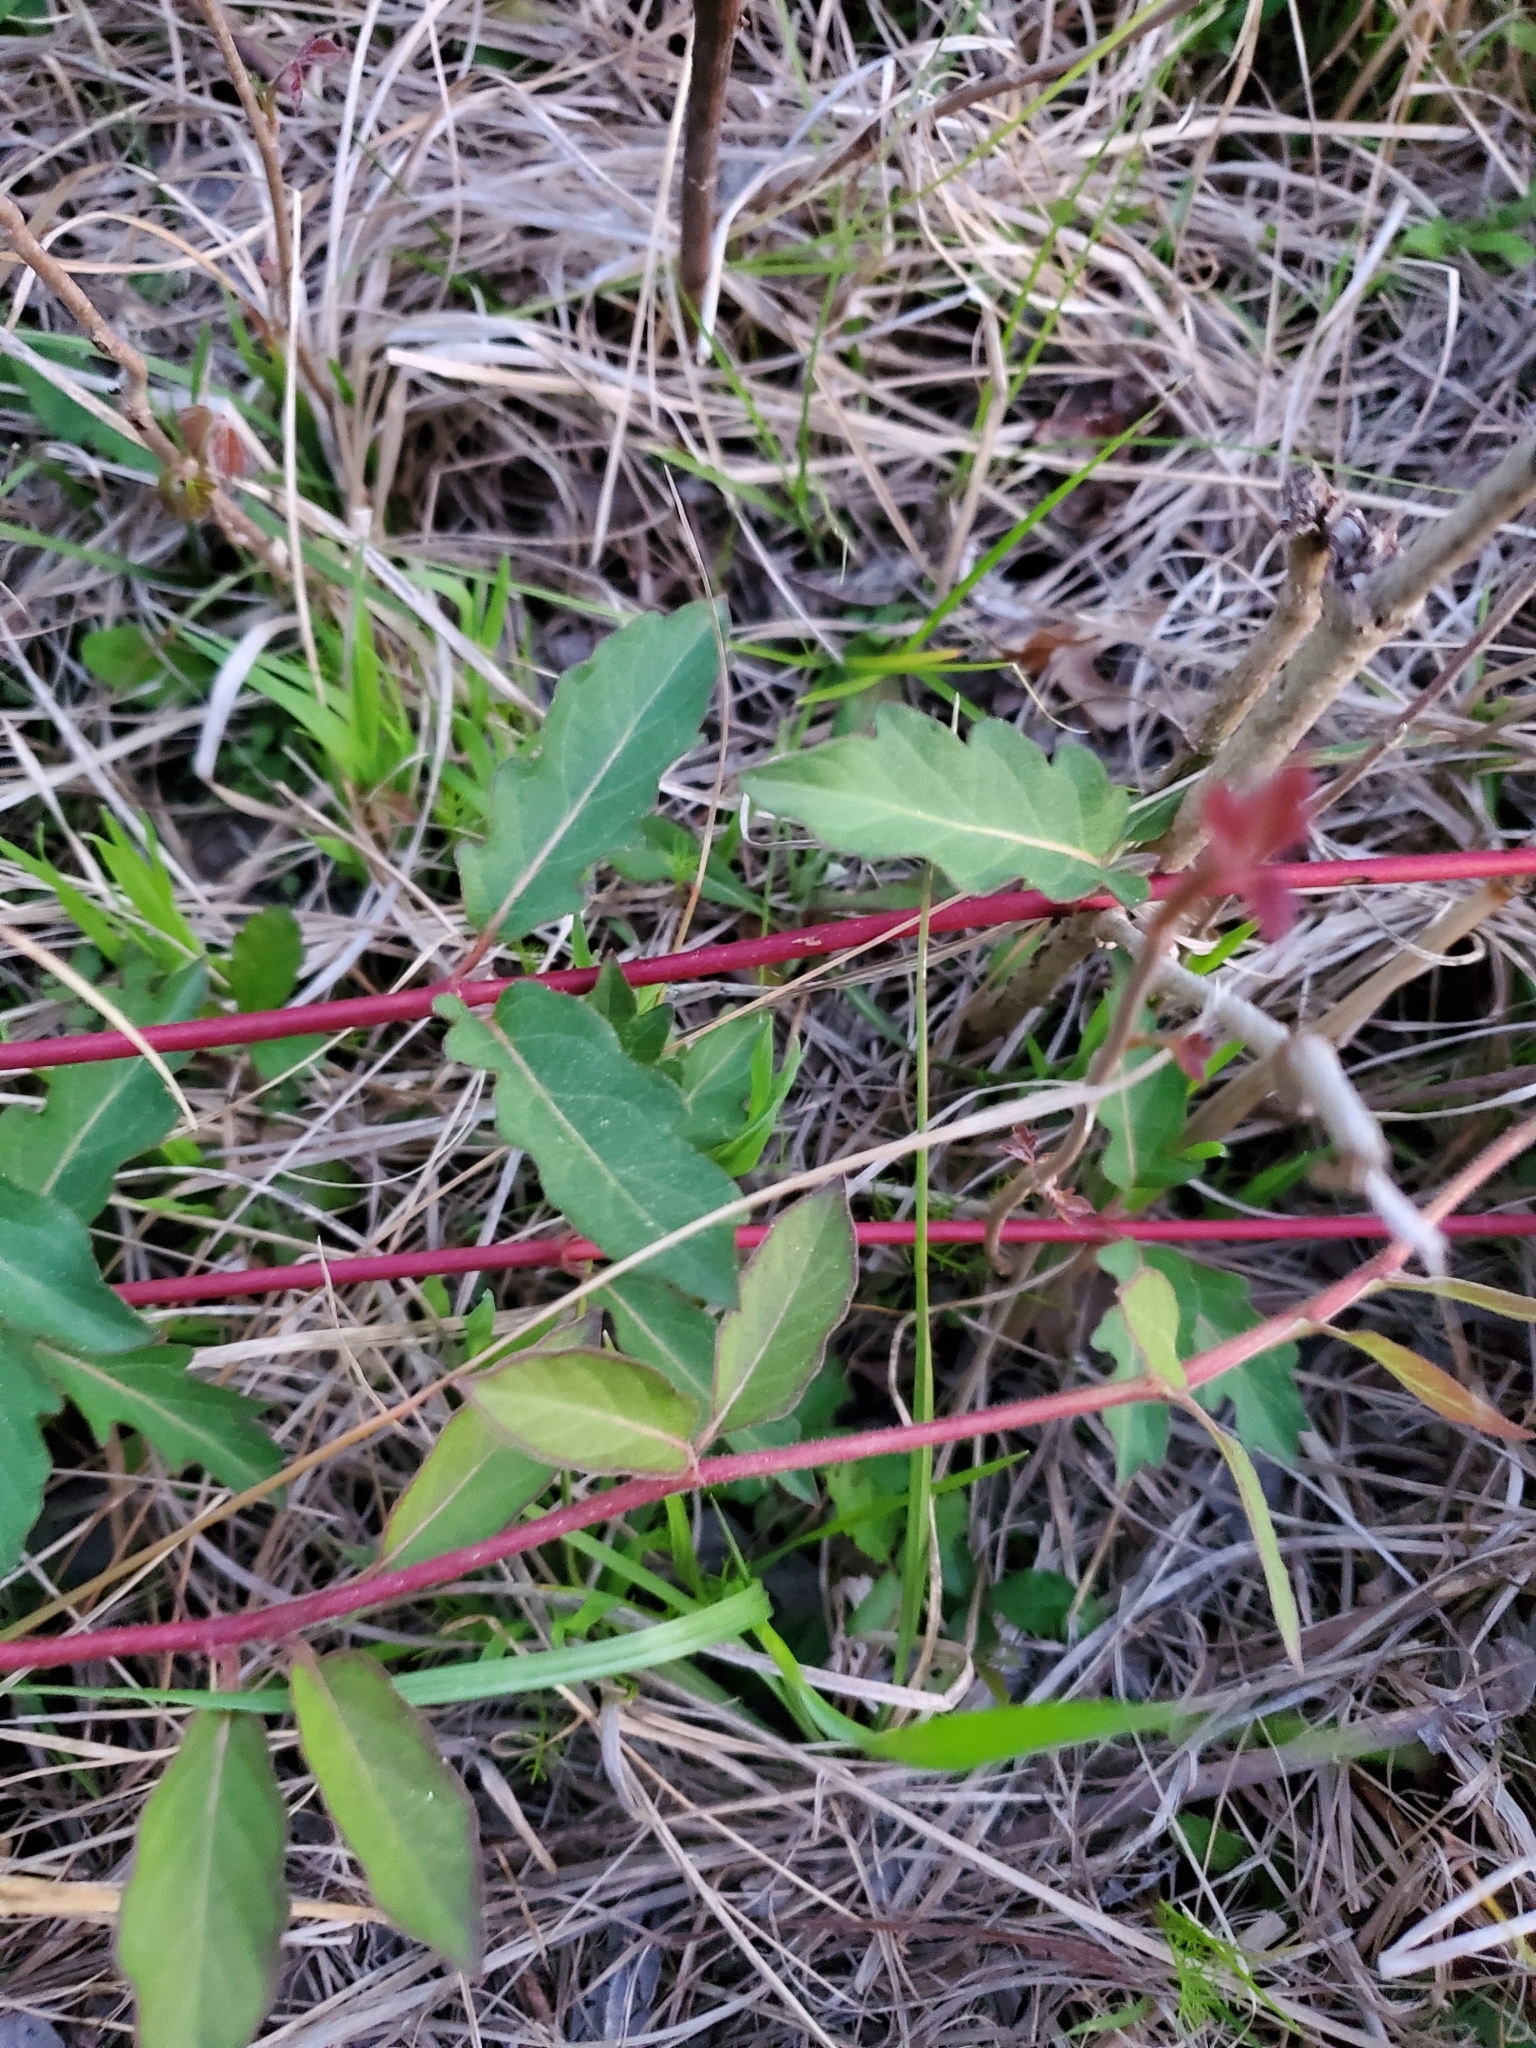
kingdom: Plantae
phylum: Tracheophyta
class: Magnoliopsida
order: Dipsacales
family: Caprifoliaceae
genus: Lonicera
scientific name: Lonicera japonica
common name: Japanese honeysuckle
